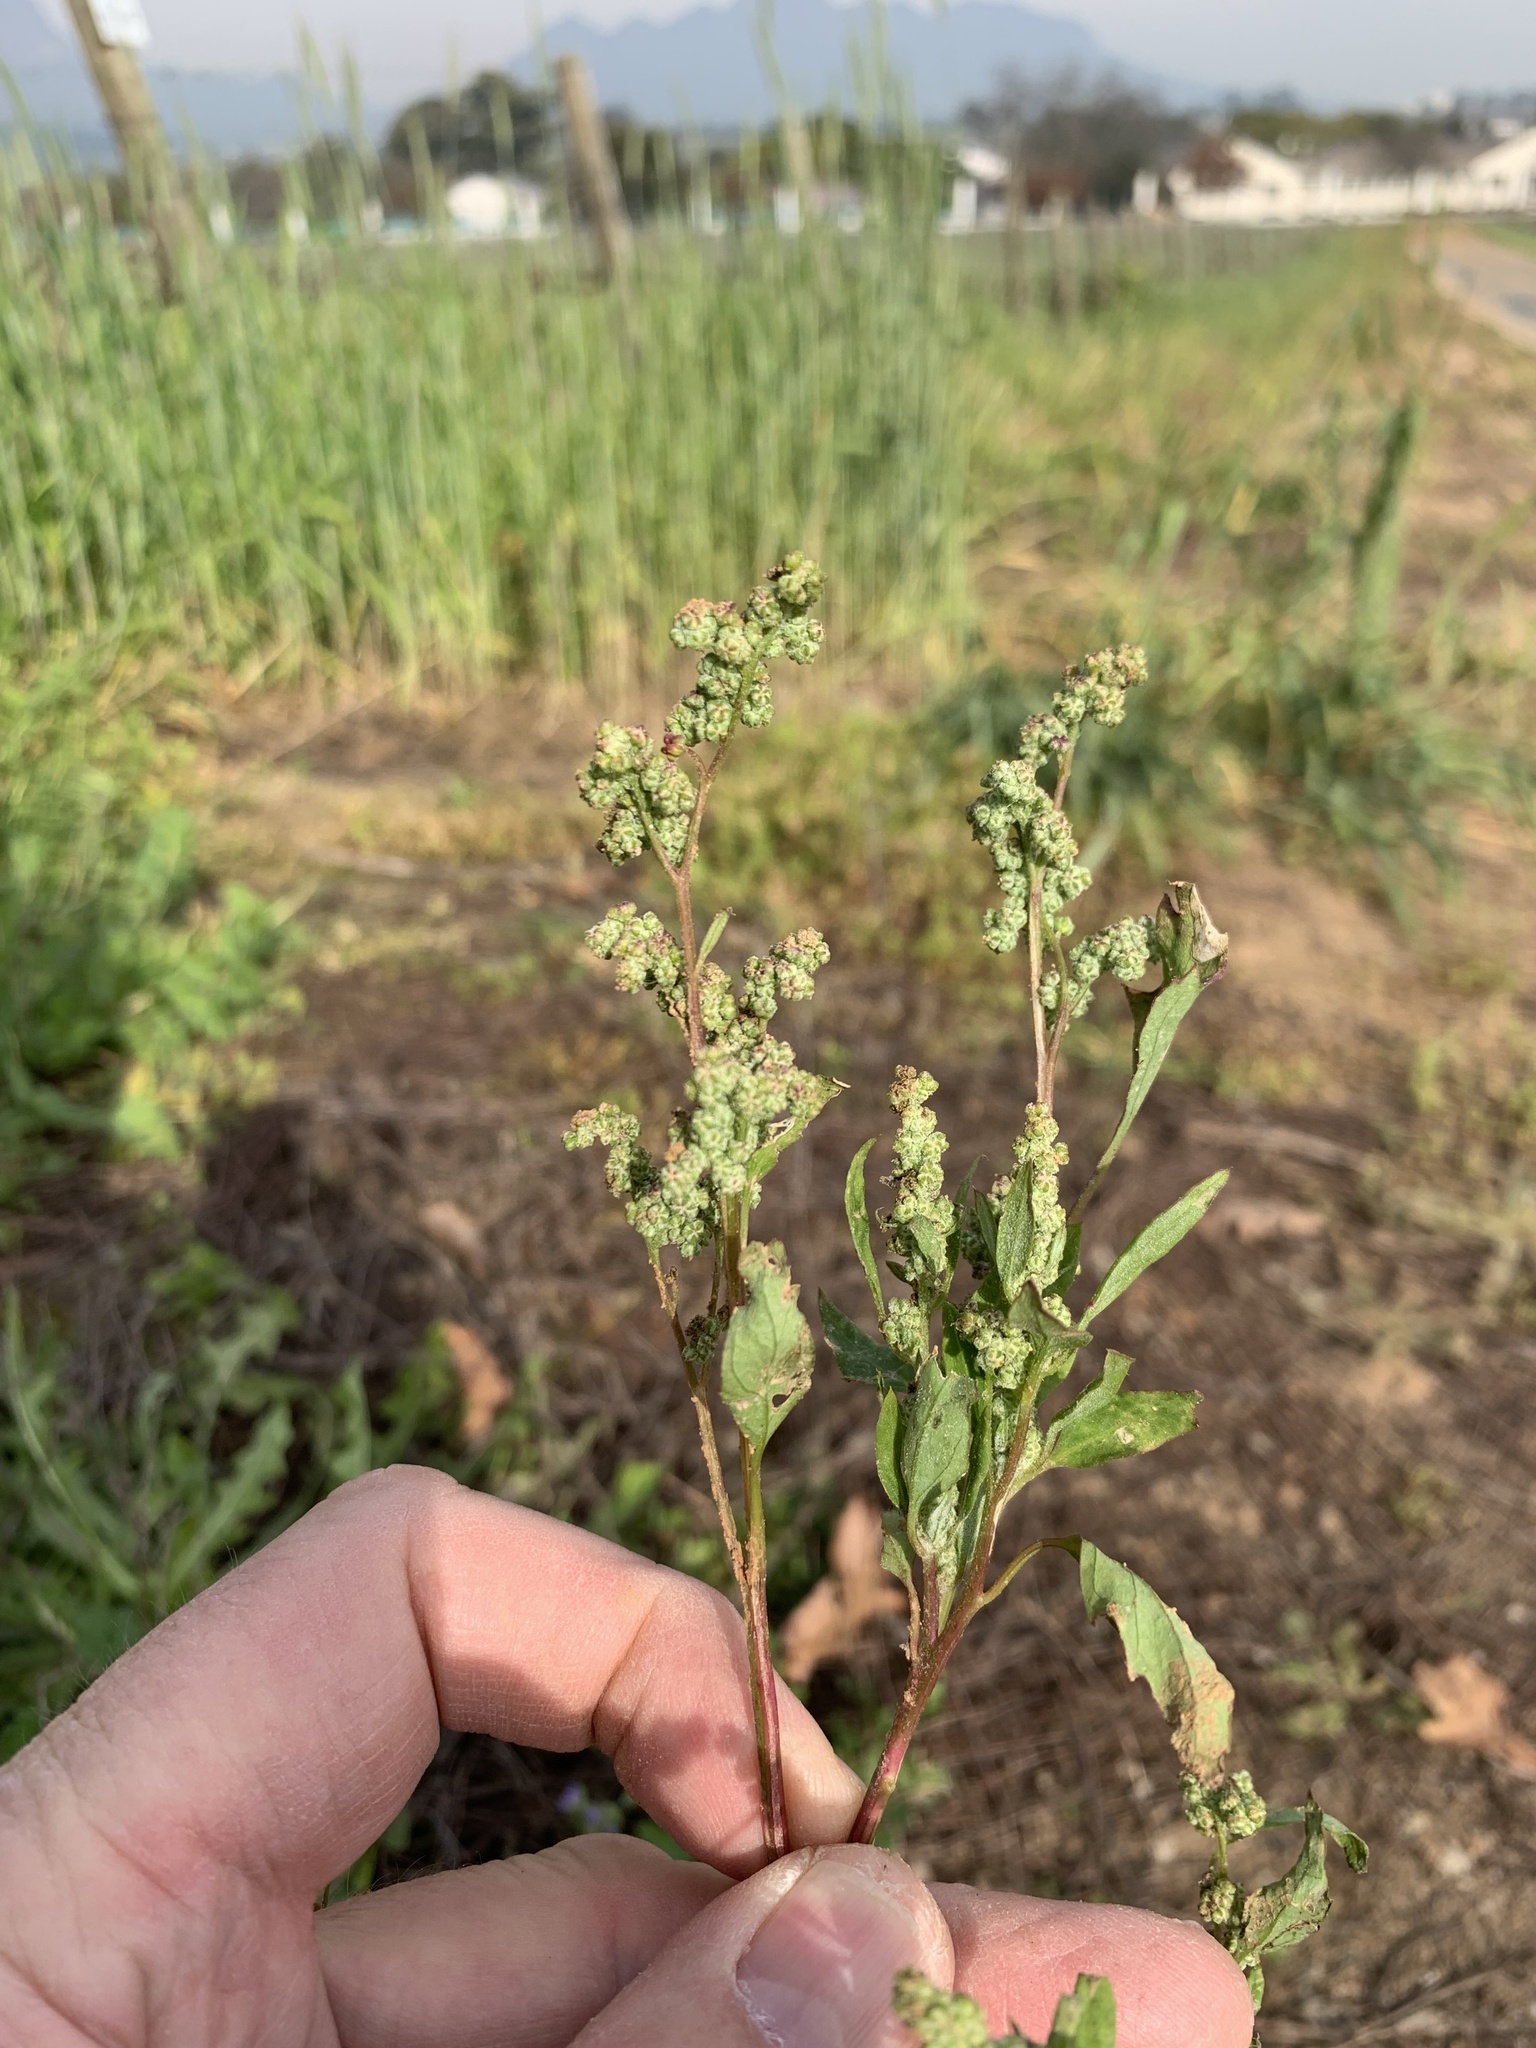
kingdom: Plantae
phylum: Tracheophyta
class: Magnoliopsida
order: Caryophyllales
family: Amaranthaceae
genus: Chenopodium
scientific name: Chenopodium album
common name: Fat-hen
